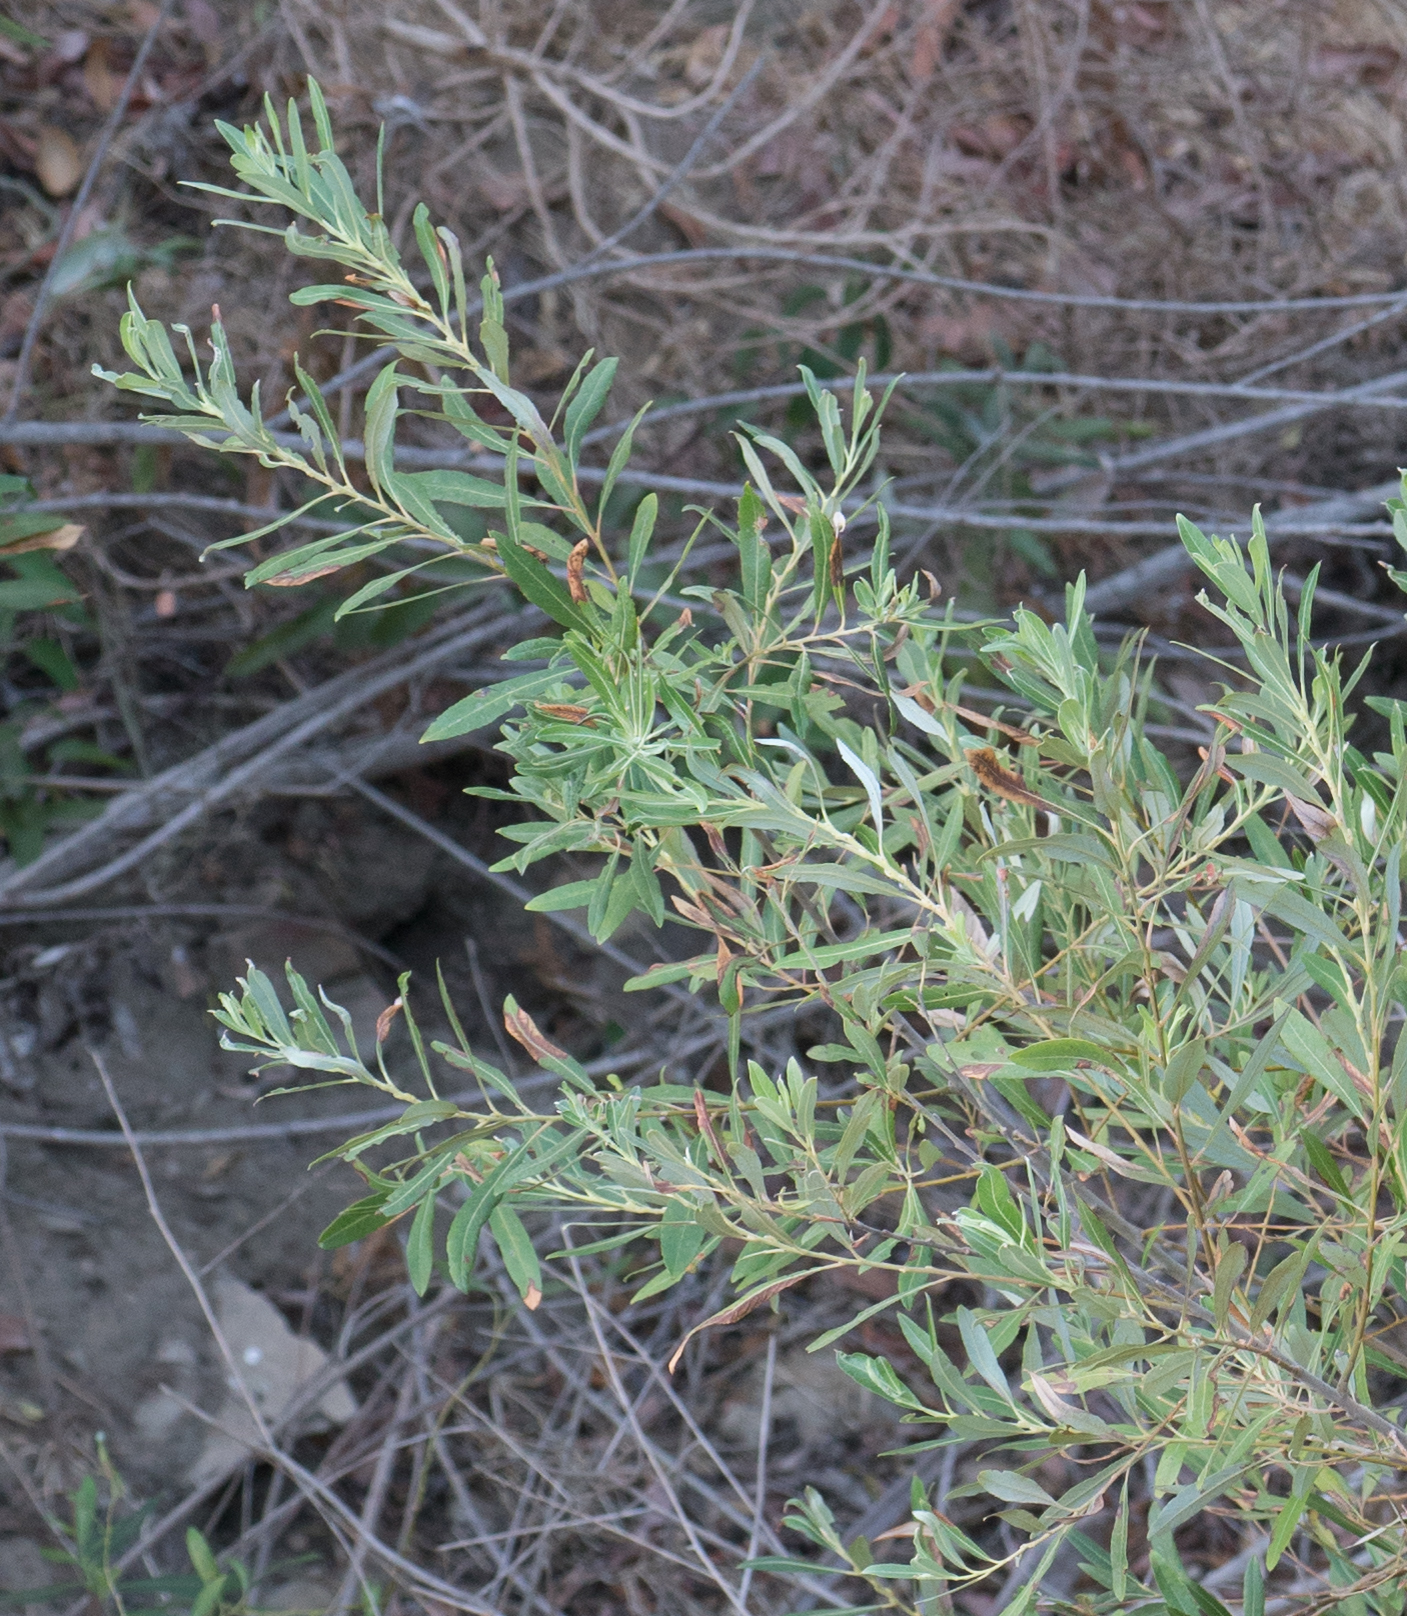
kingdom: Plantae
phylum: Tracheophyta
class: Magnoliopsida
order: Malpighiales
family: Salicaceae
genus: Salix
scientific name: Salix lasiolepis
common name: Arroyo willow
